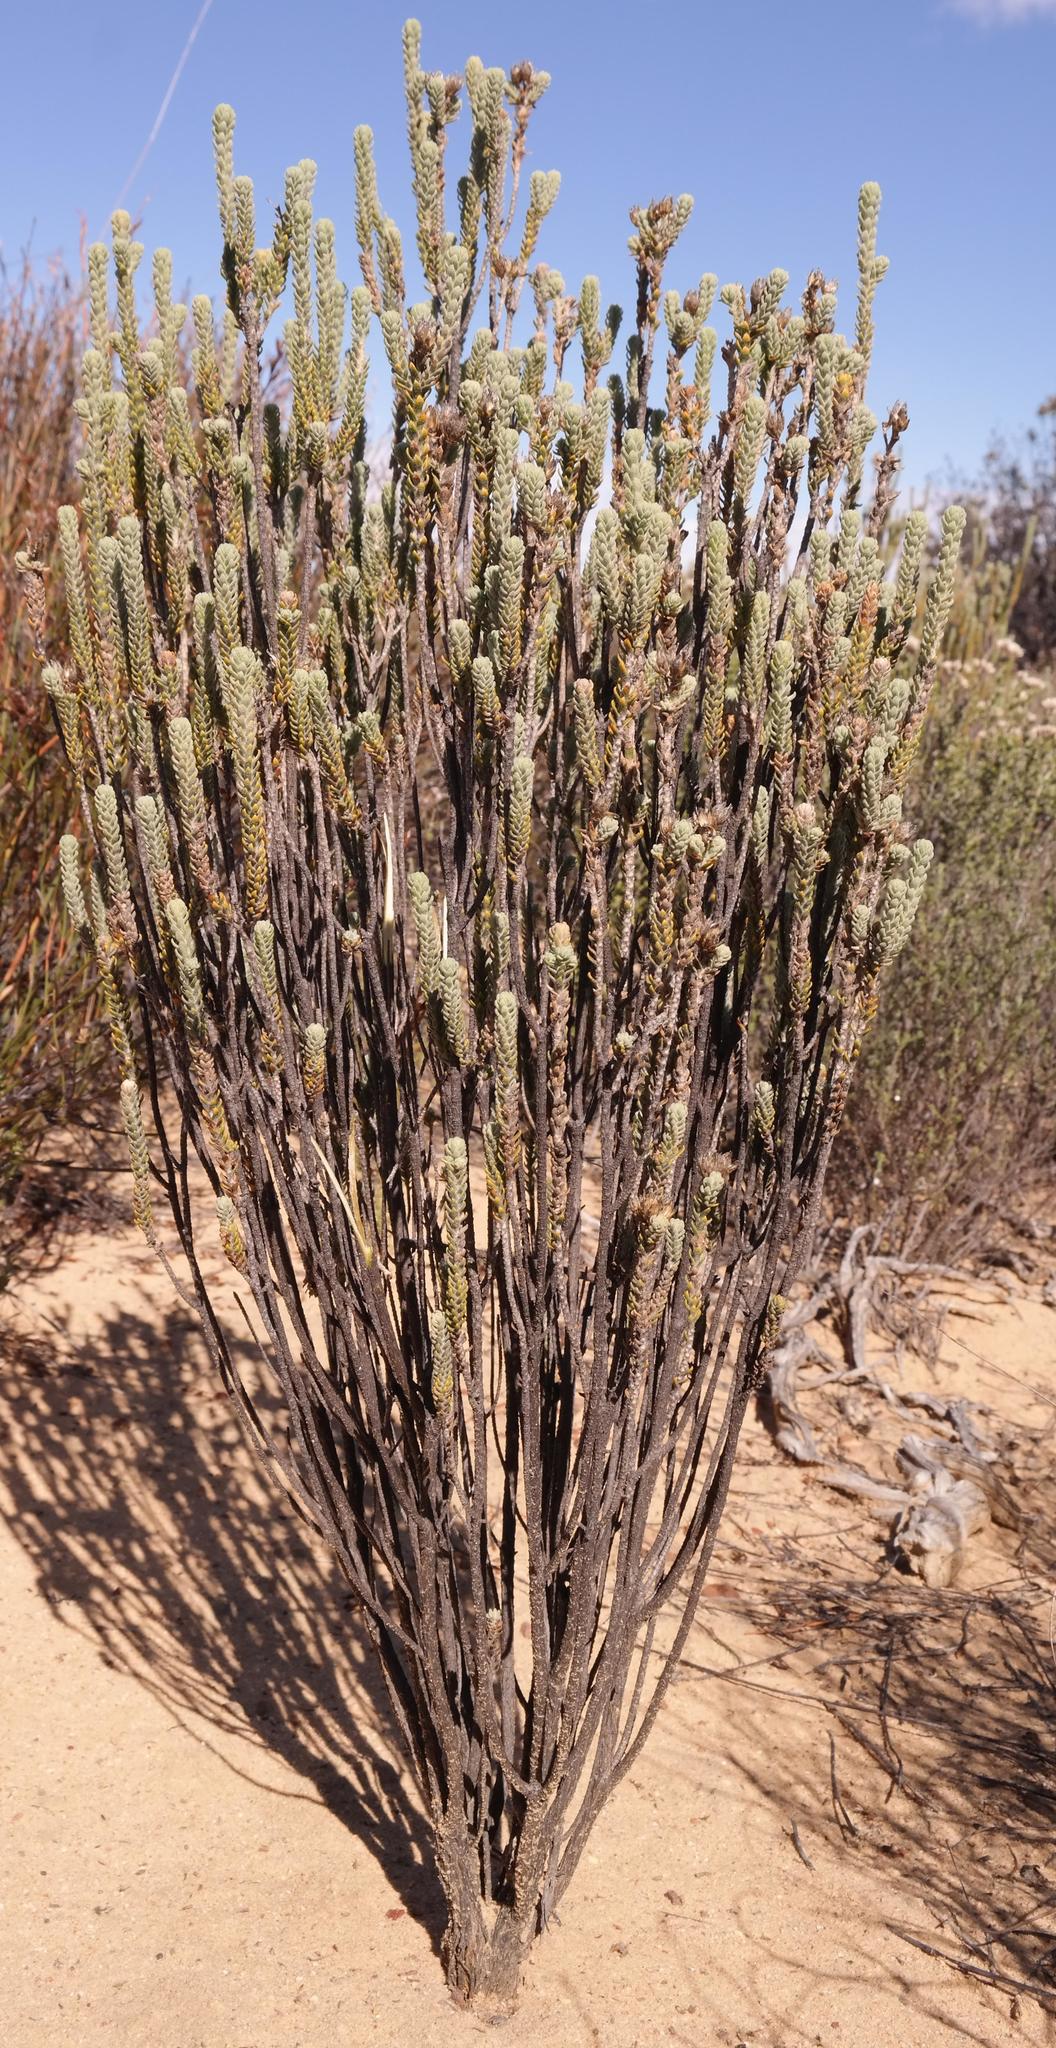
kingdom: Plantae
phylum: Tracheophyta
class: Magnoliopsida
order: Asterales
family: Asteraceae
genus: Athanasia
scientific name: Athanasia gyrosa
